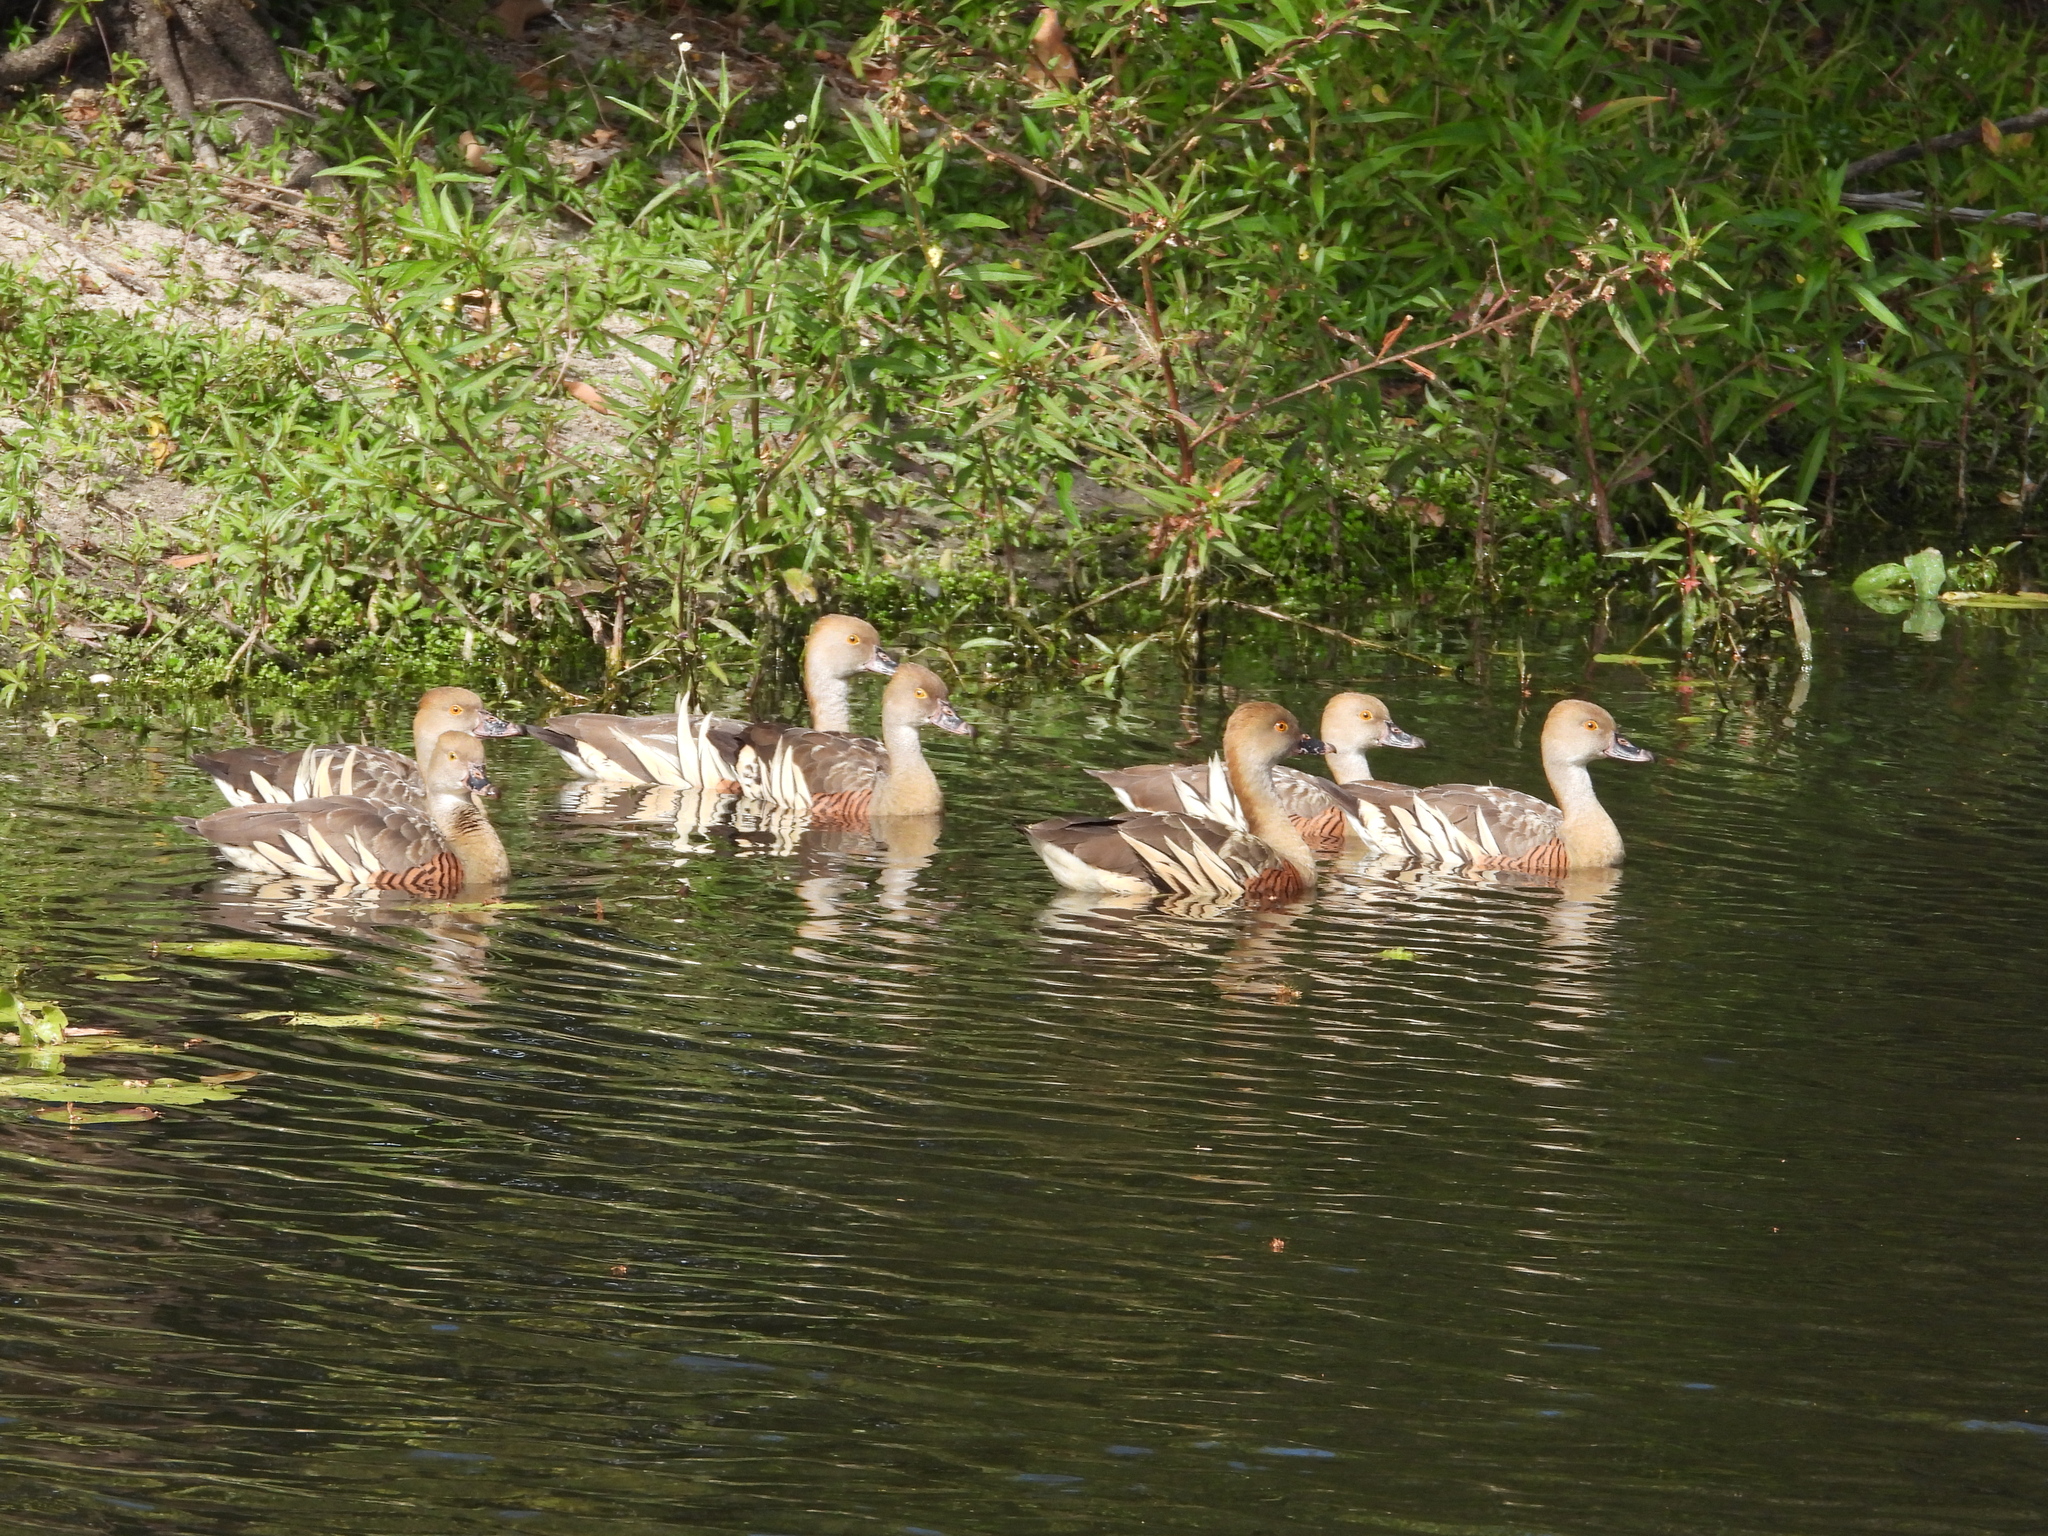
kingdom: Animalia
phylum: Chordata
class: Aves
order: Anseriformes
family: Anatidae
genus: Dendrocygna
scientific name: Dendrocygna eytoni
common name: Plumed whistling-duck
